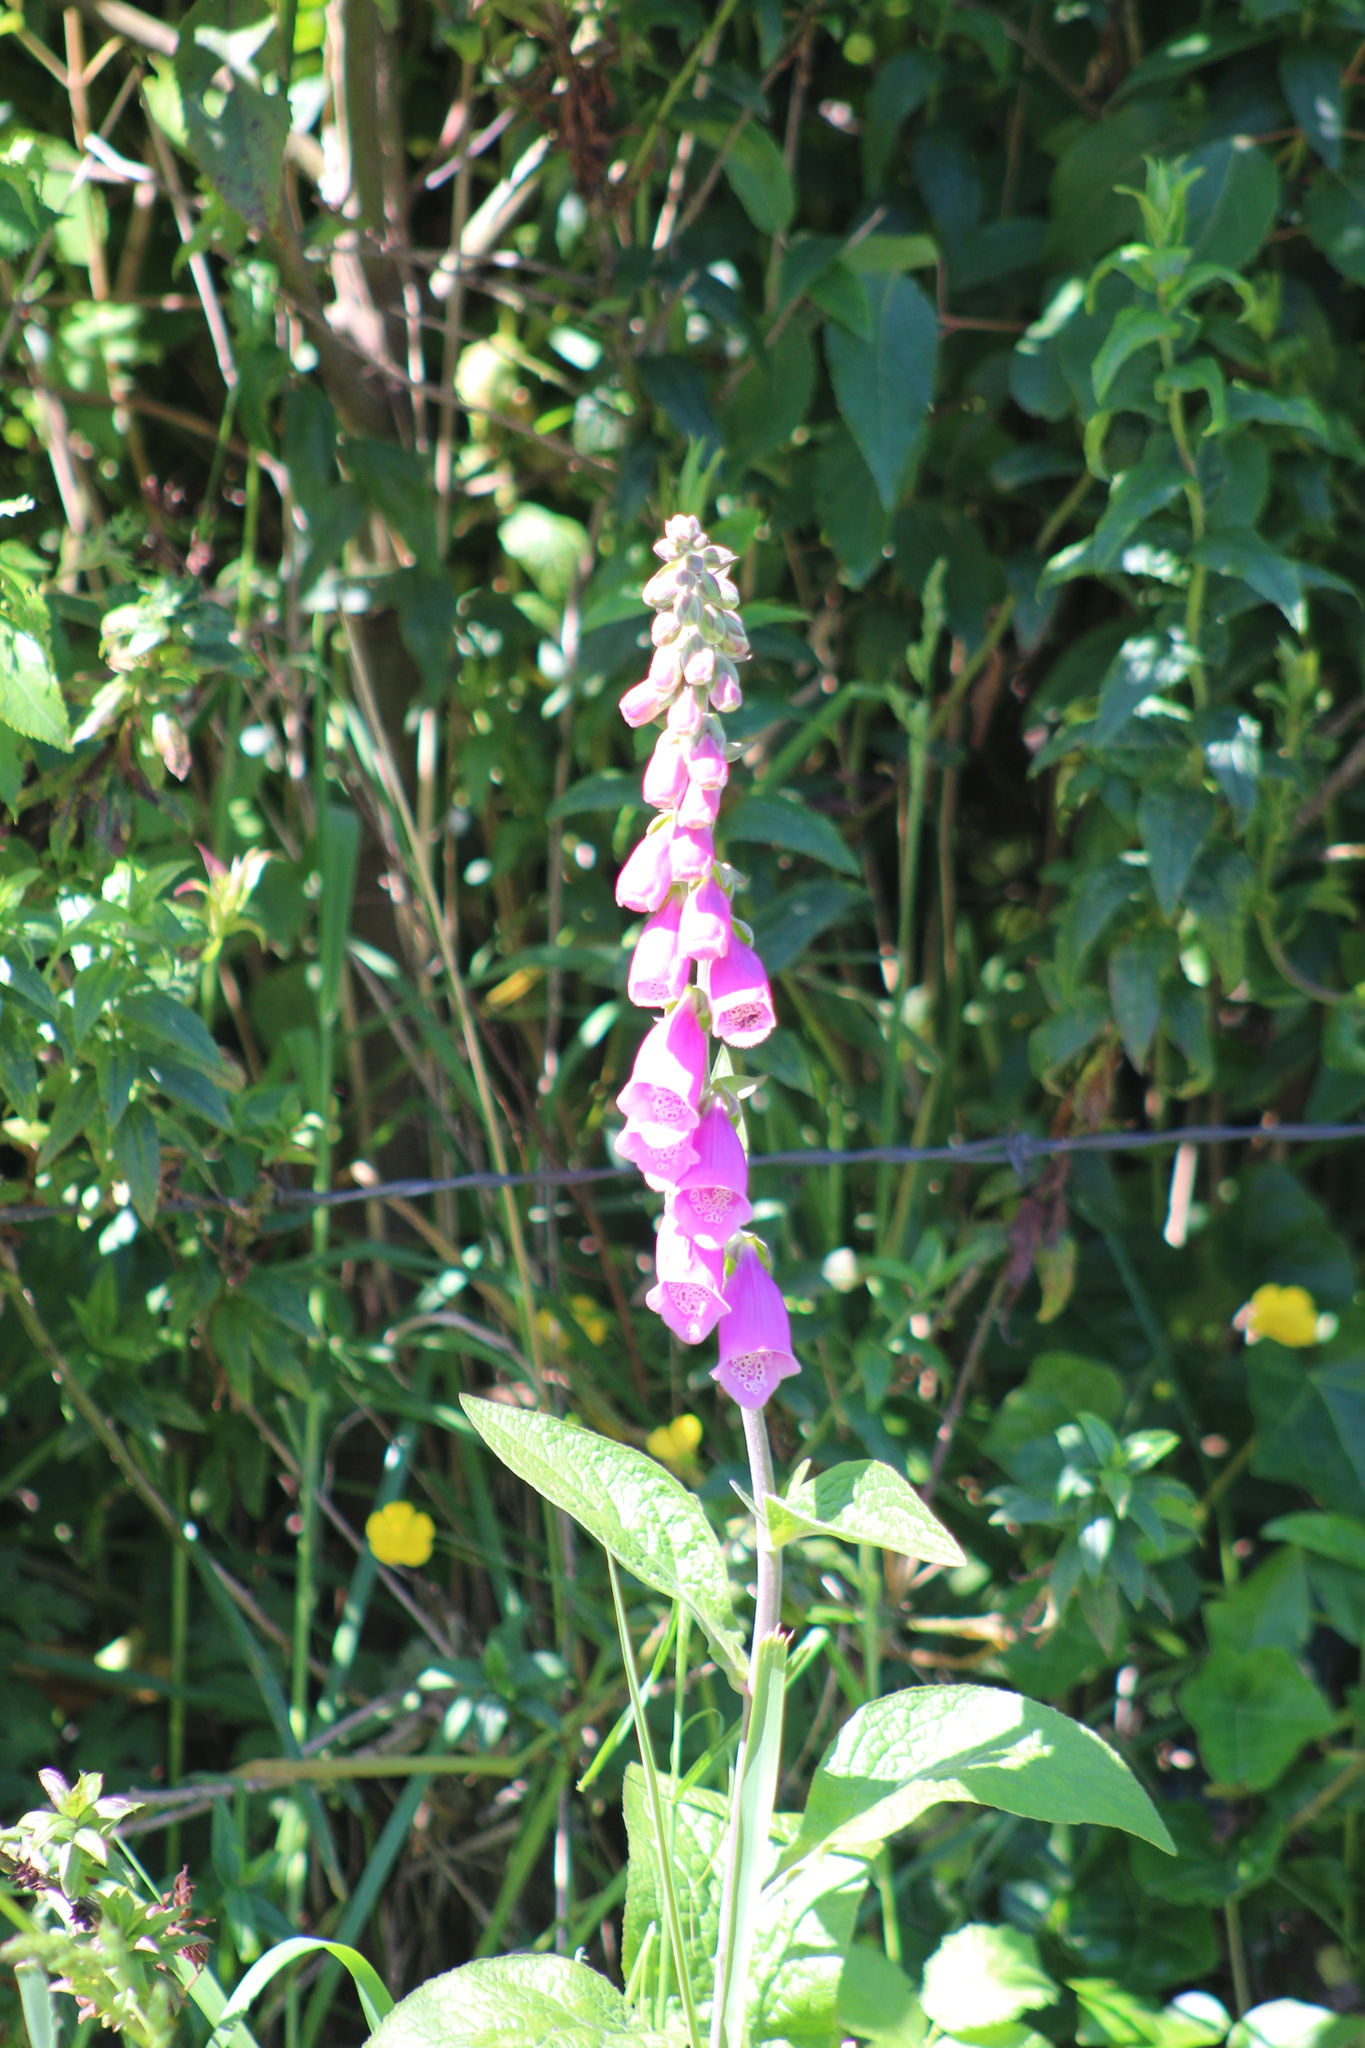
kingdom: Plantae
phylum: Tracheophyta
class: Magnoliopsida
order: Lamiales
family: Plantaginaceae
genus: Digitalis
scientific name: Digitalis purpurea
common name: Foxglove
